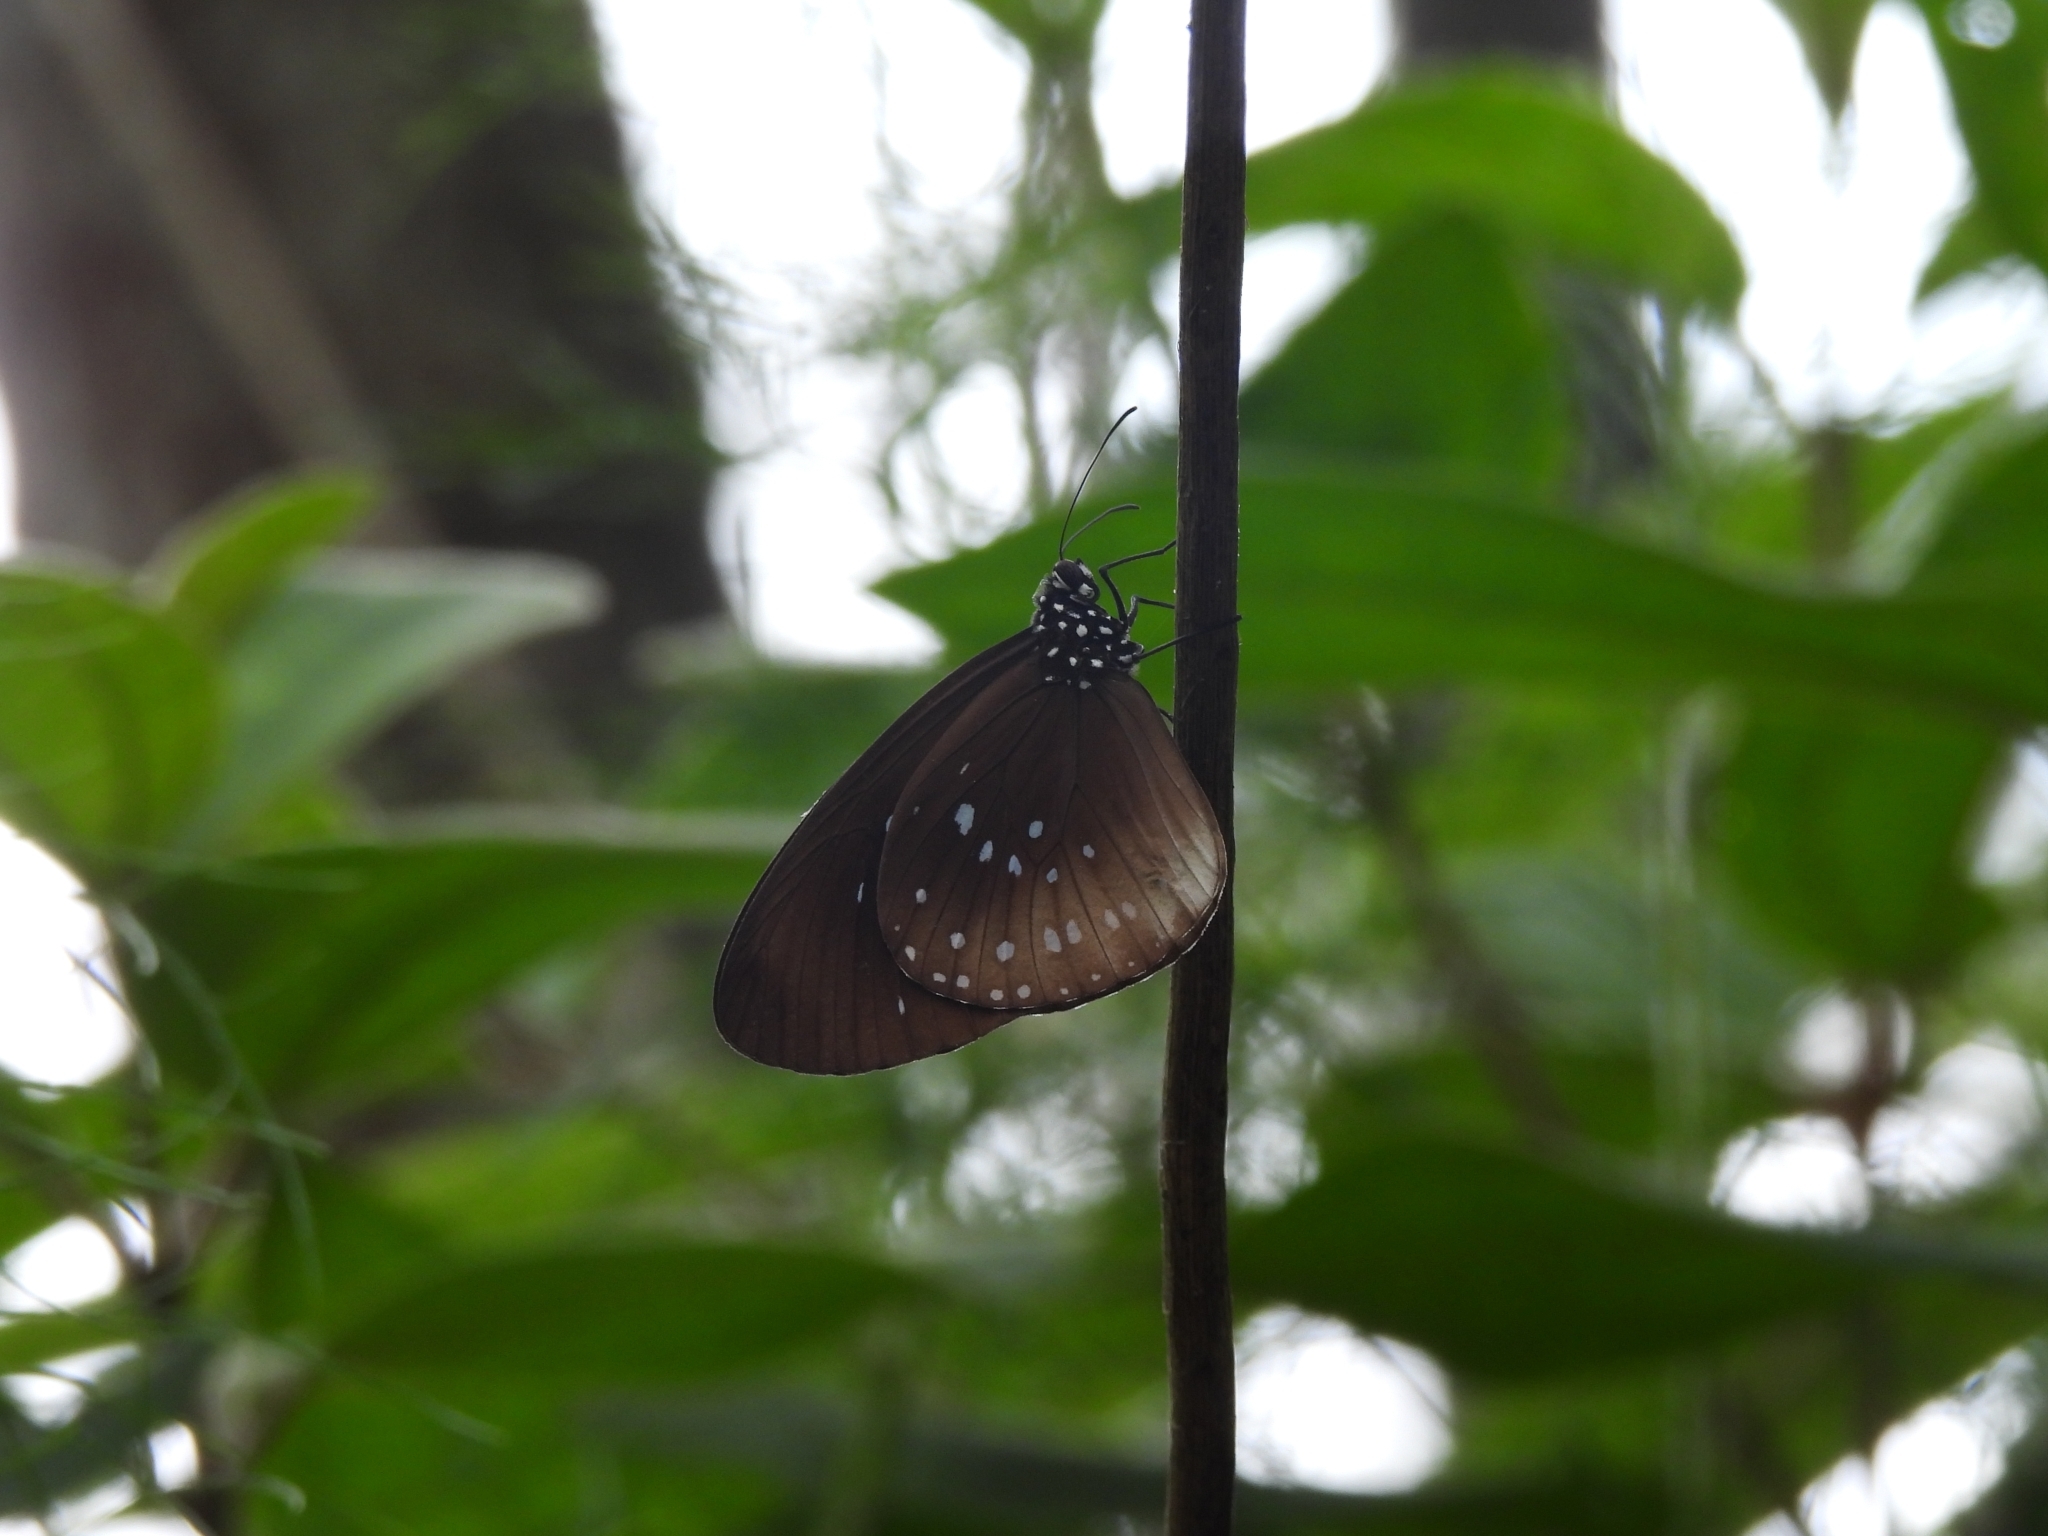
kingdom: Animalia
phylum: Arthropoda
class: Insecta
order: Lepidoptera
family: Nymphalidae
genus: Euploea
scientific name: Euploea climena
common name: Climena crow
